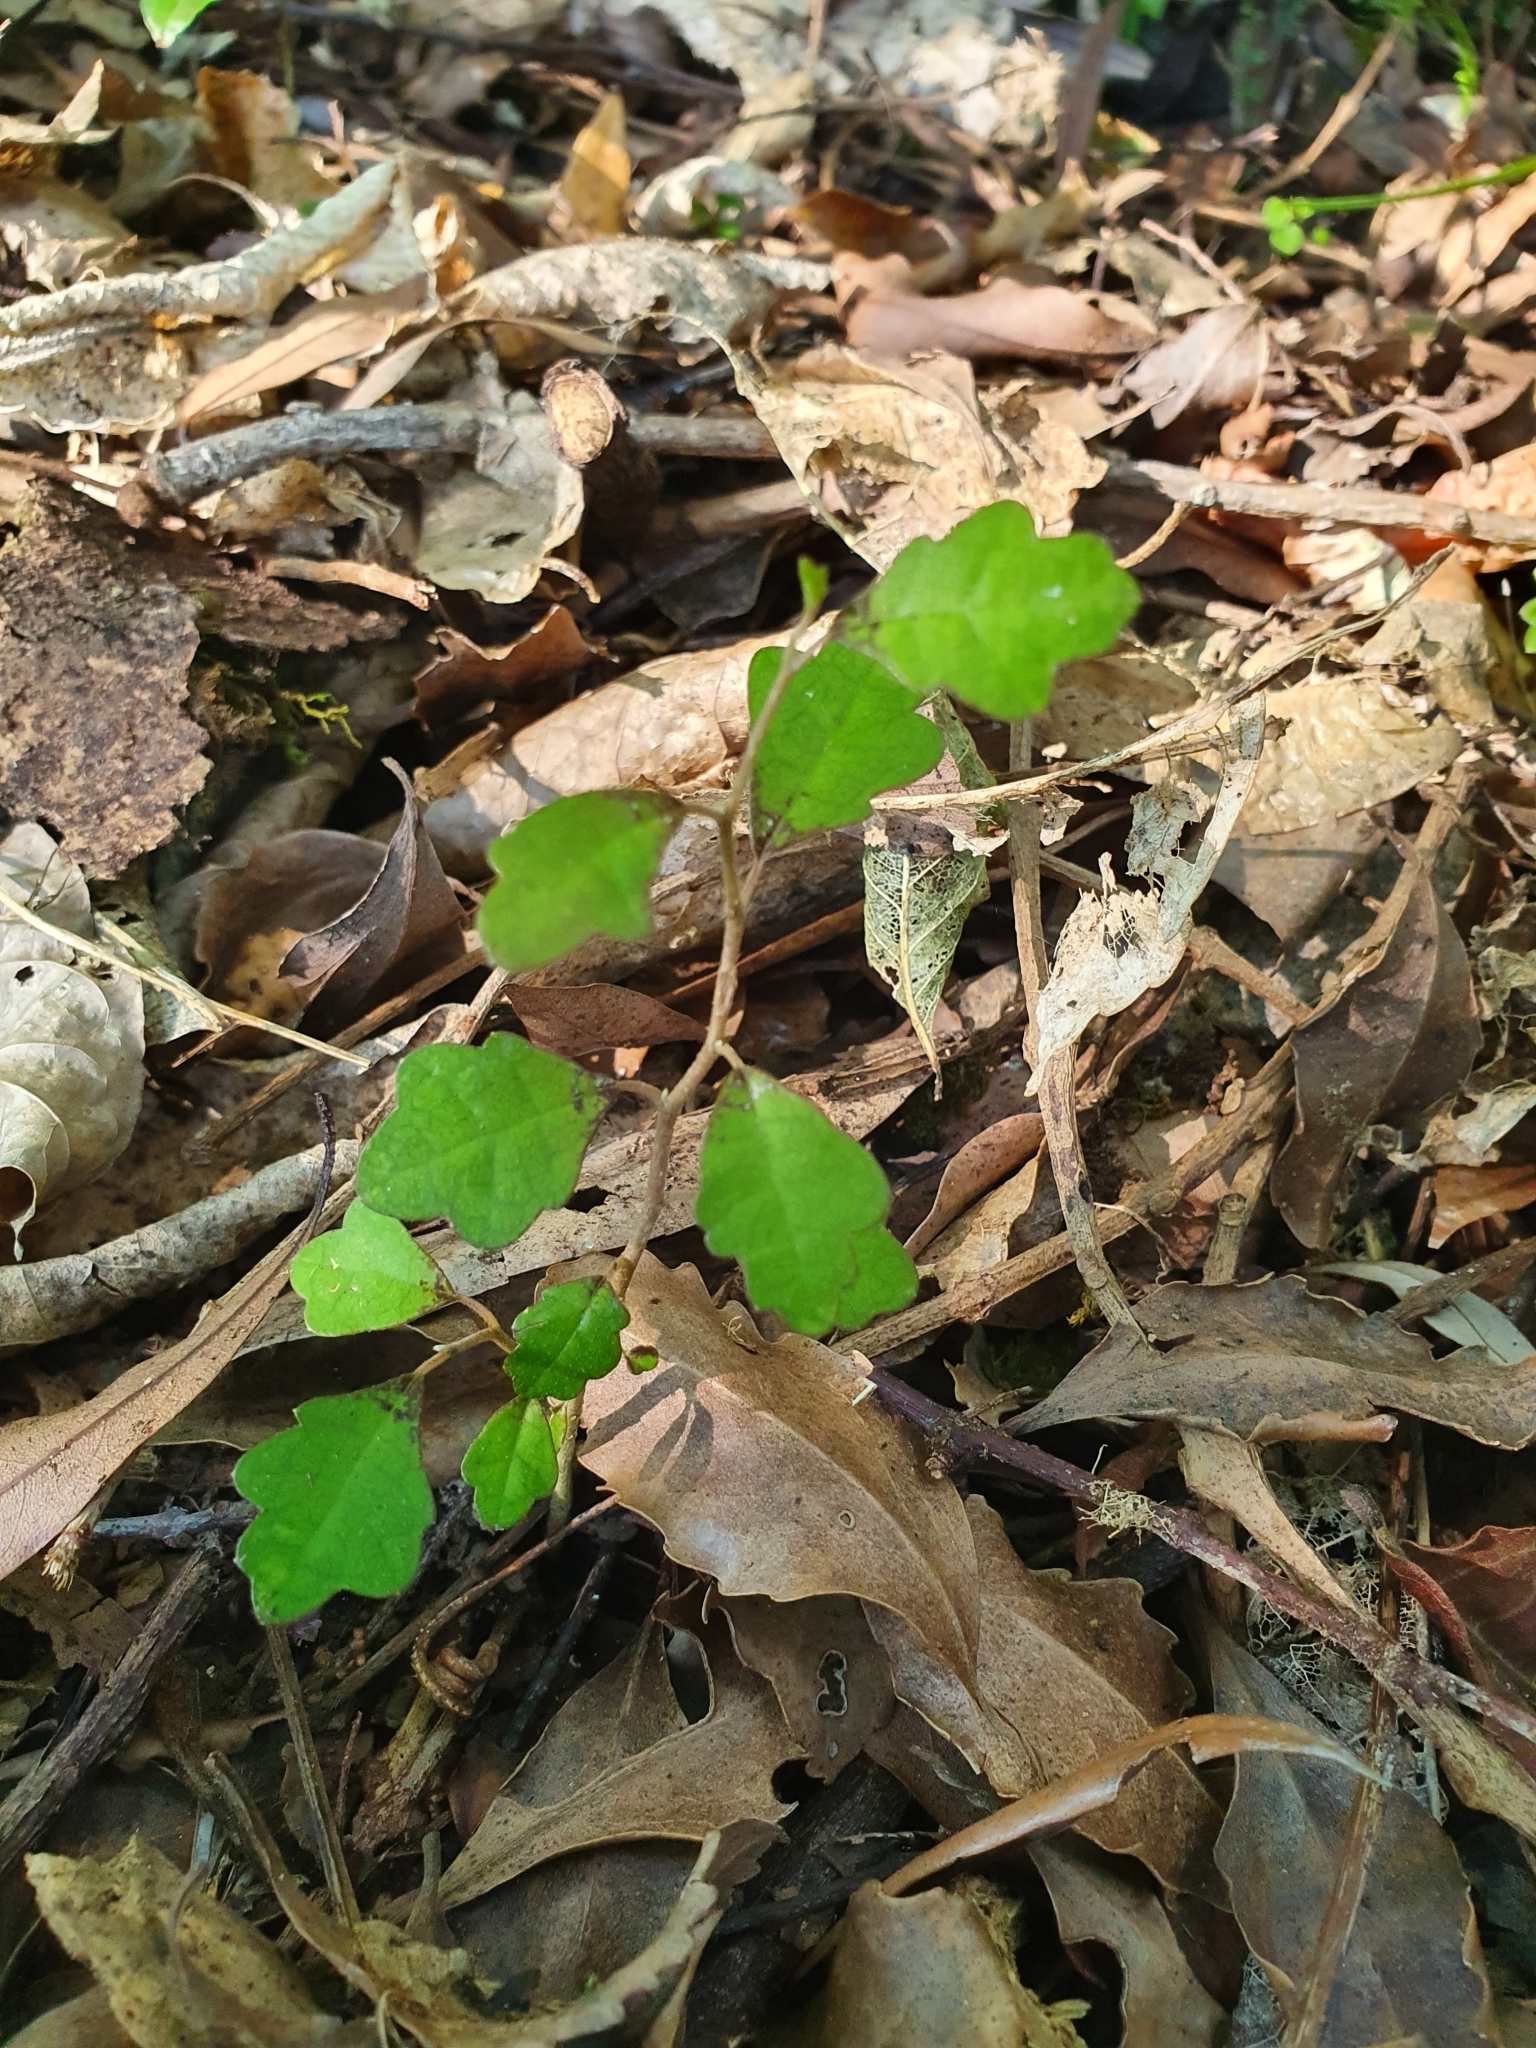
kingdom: Plantae
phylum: Tracheophyta
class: Magnoliopsida
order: Apiales
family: Pennantiaceae
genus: Pennantia
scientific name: Pennantia corymbosa
